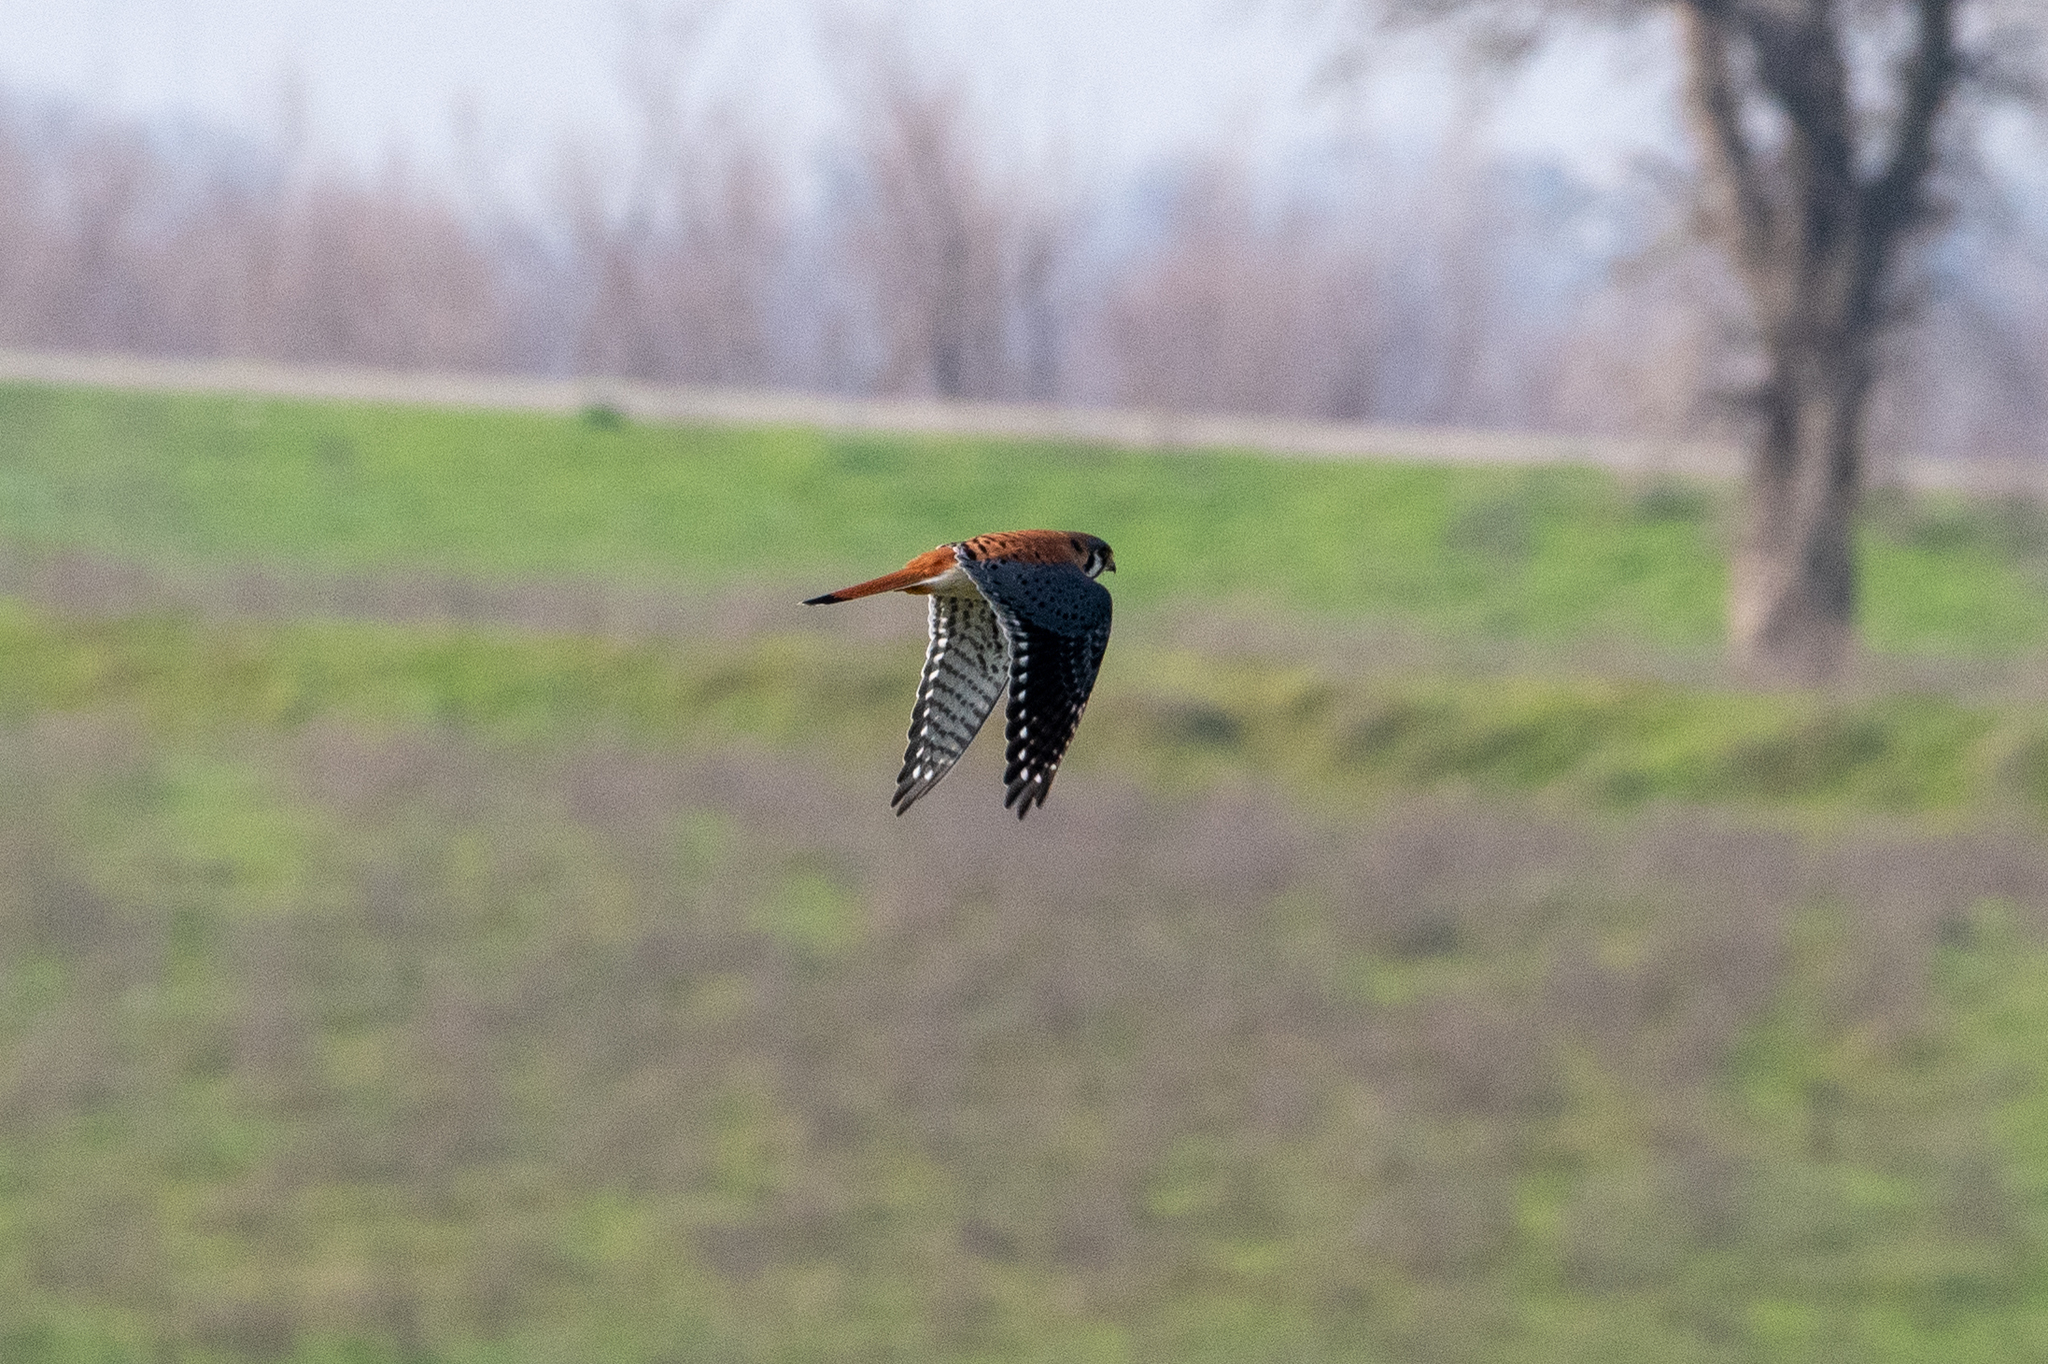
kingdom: Animalia
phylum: Chordata
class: Aves
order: Falconiformes
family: Falconidae
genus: Falco
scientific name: Falco sparverius
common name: American kestrel
